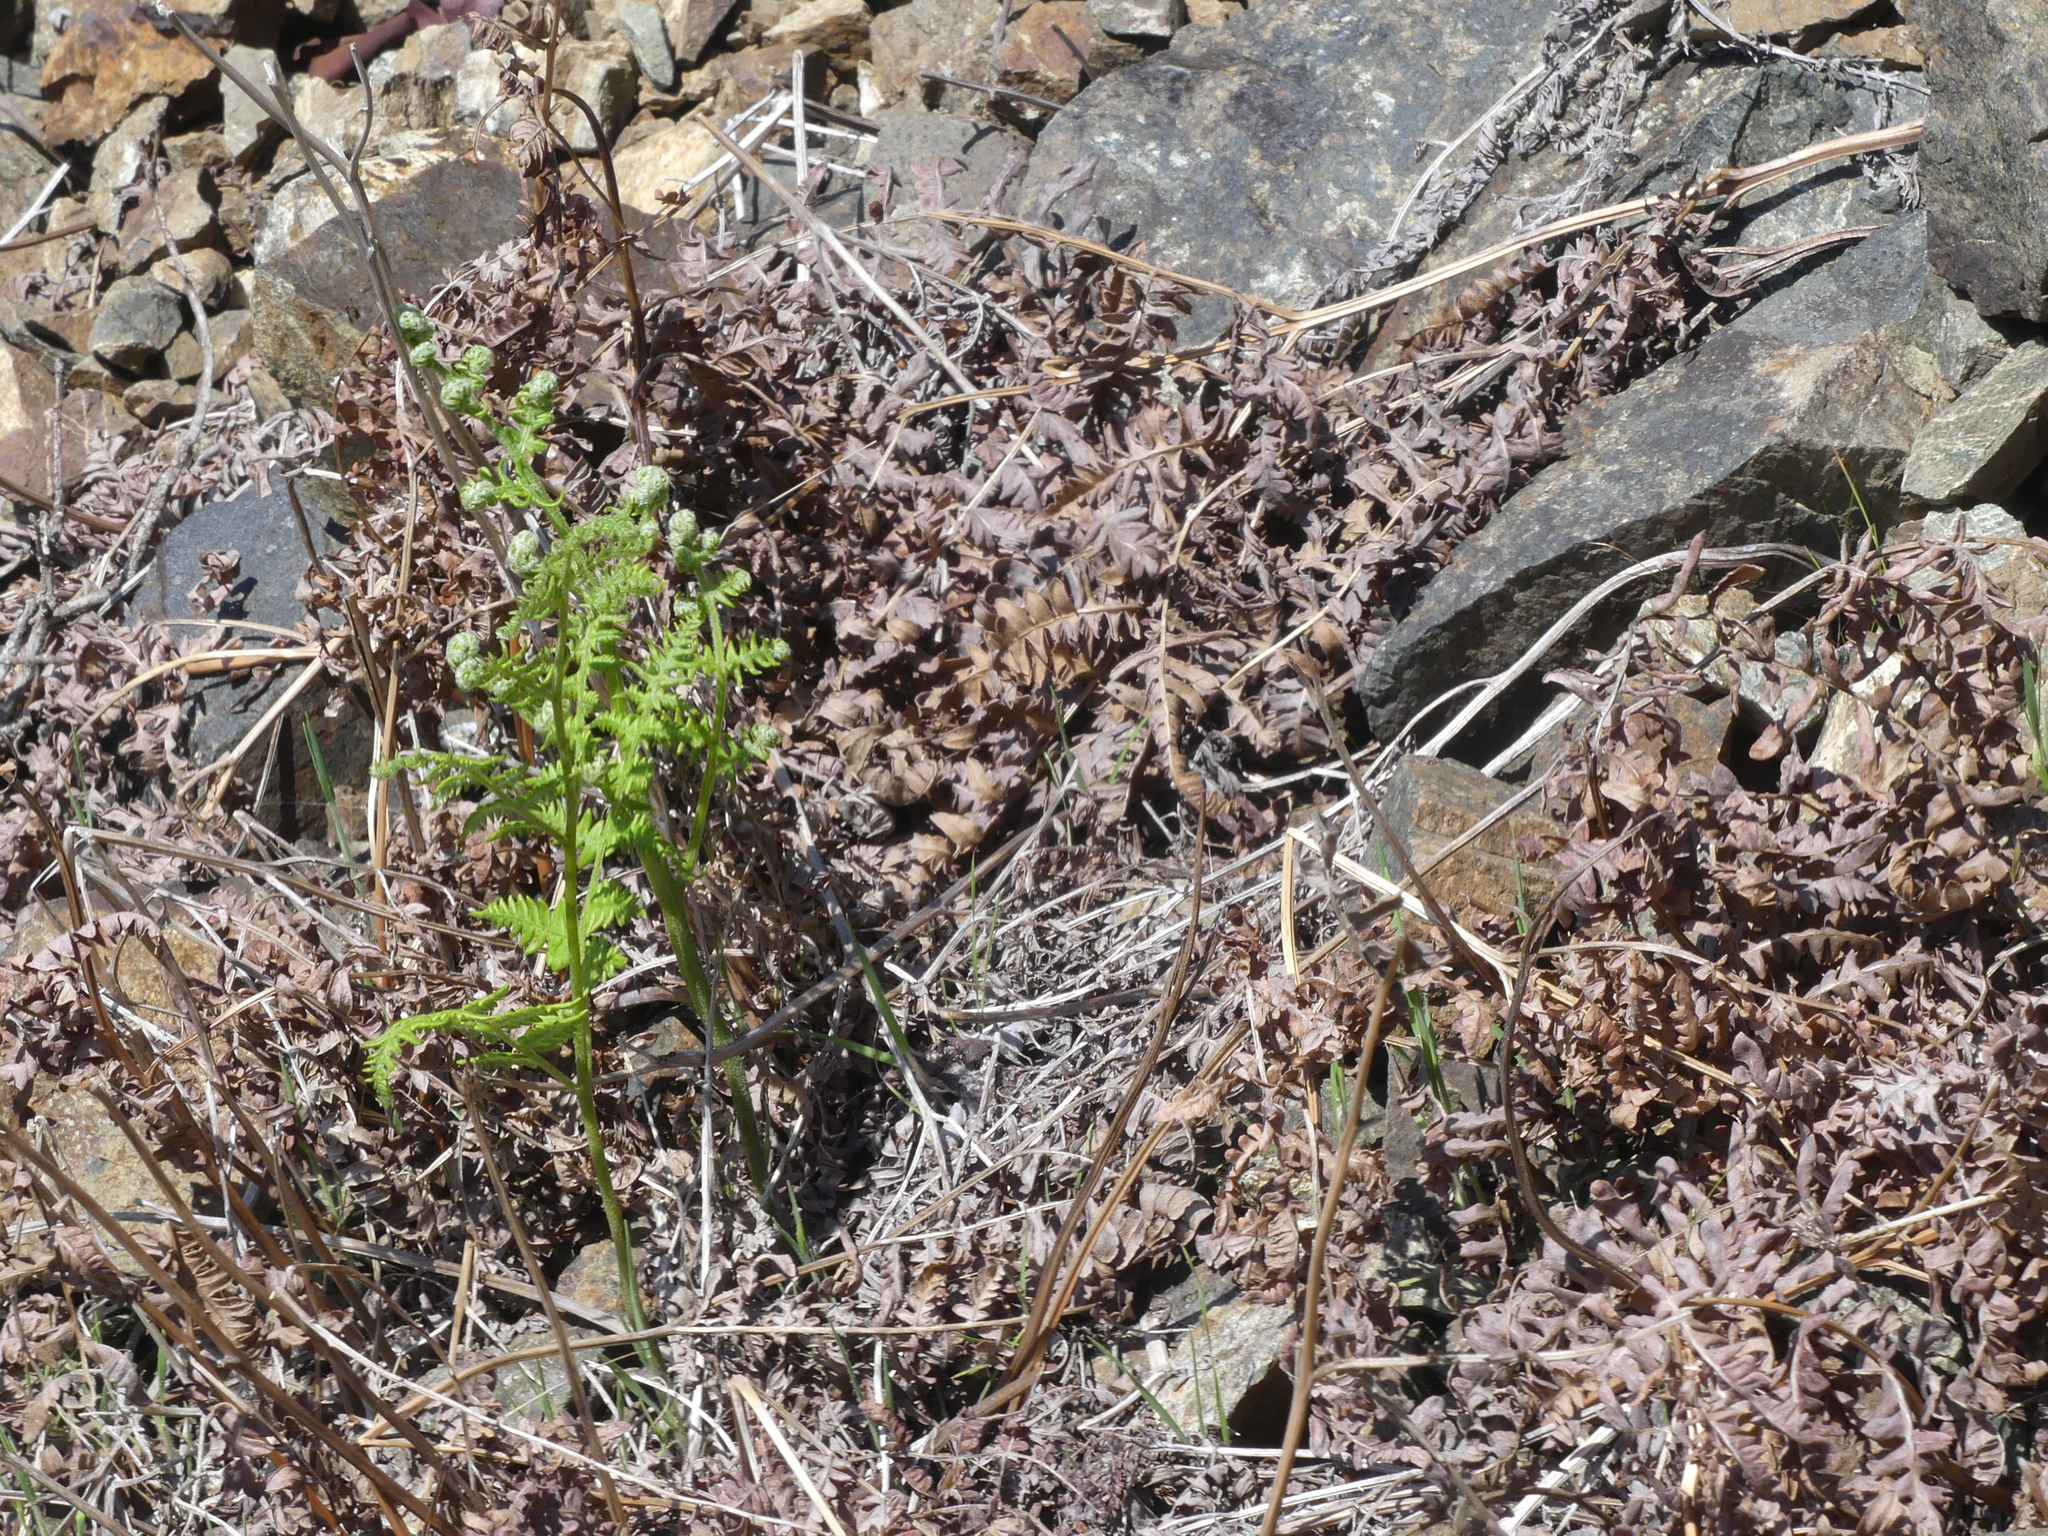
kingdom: Plantae
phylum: Tracheophyta
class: Polypodiopsida
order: Polypodiales
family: Dennstaedtiaceae
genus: Pteridium
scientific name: Pteridium aquilinum
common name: Bracken
